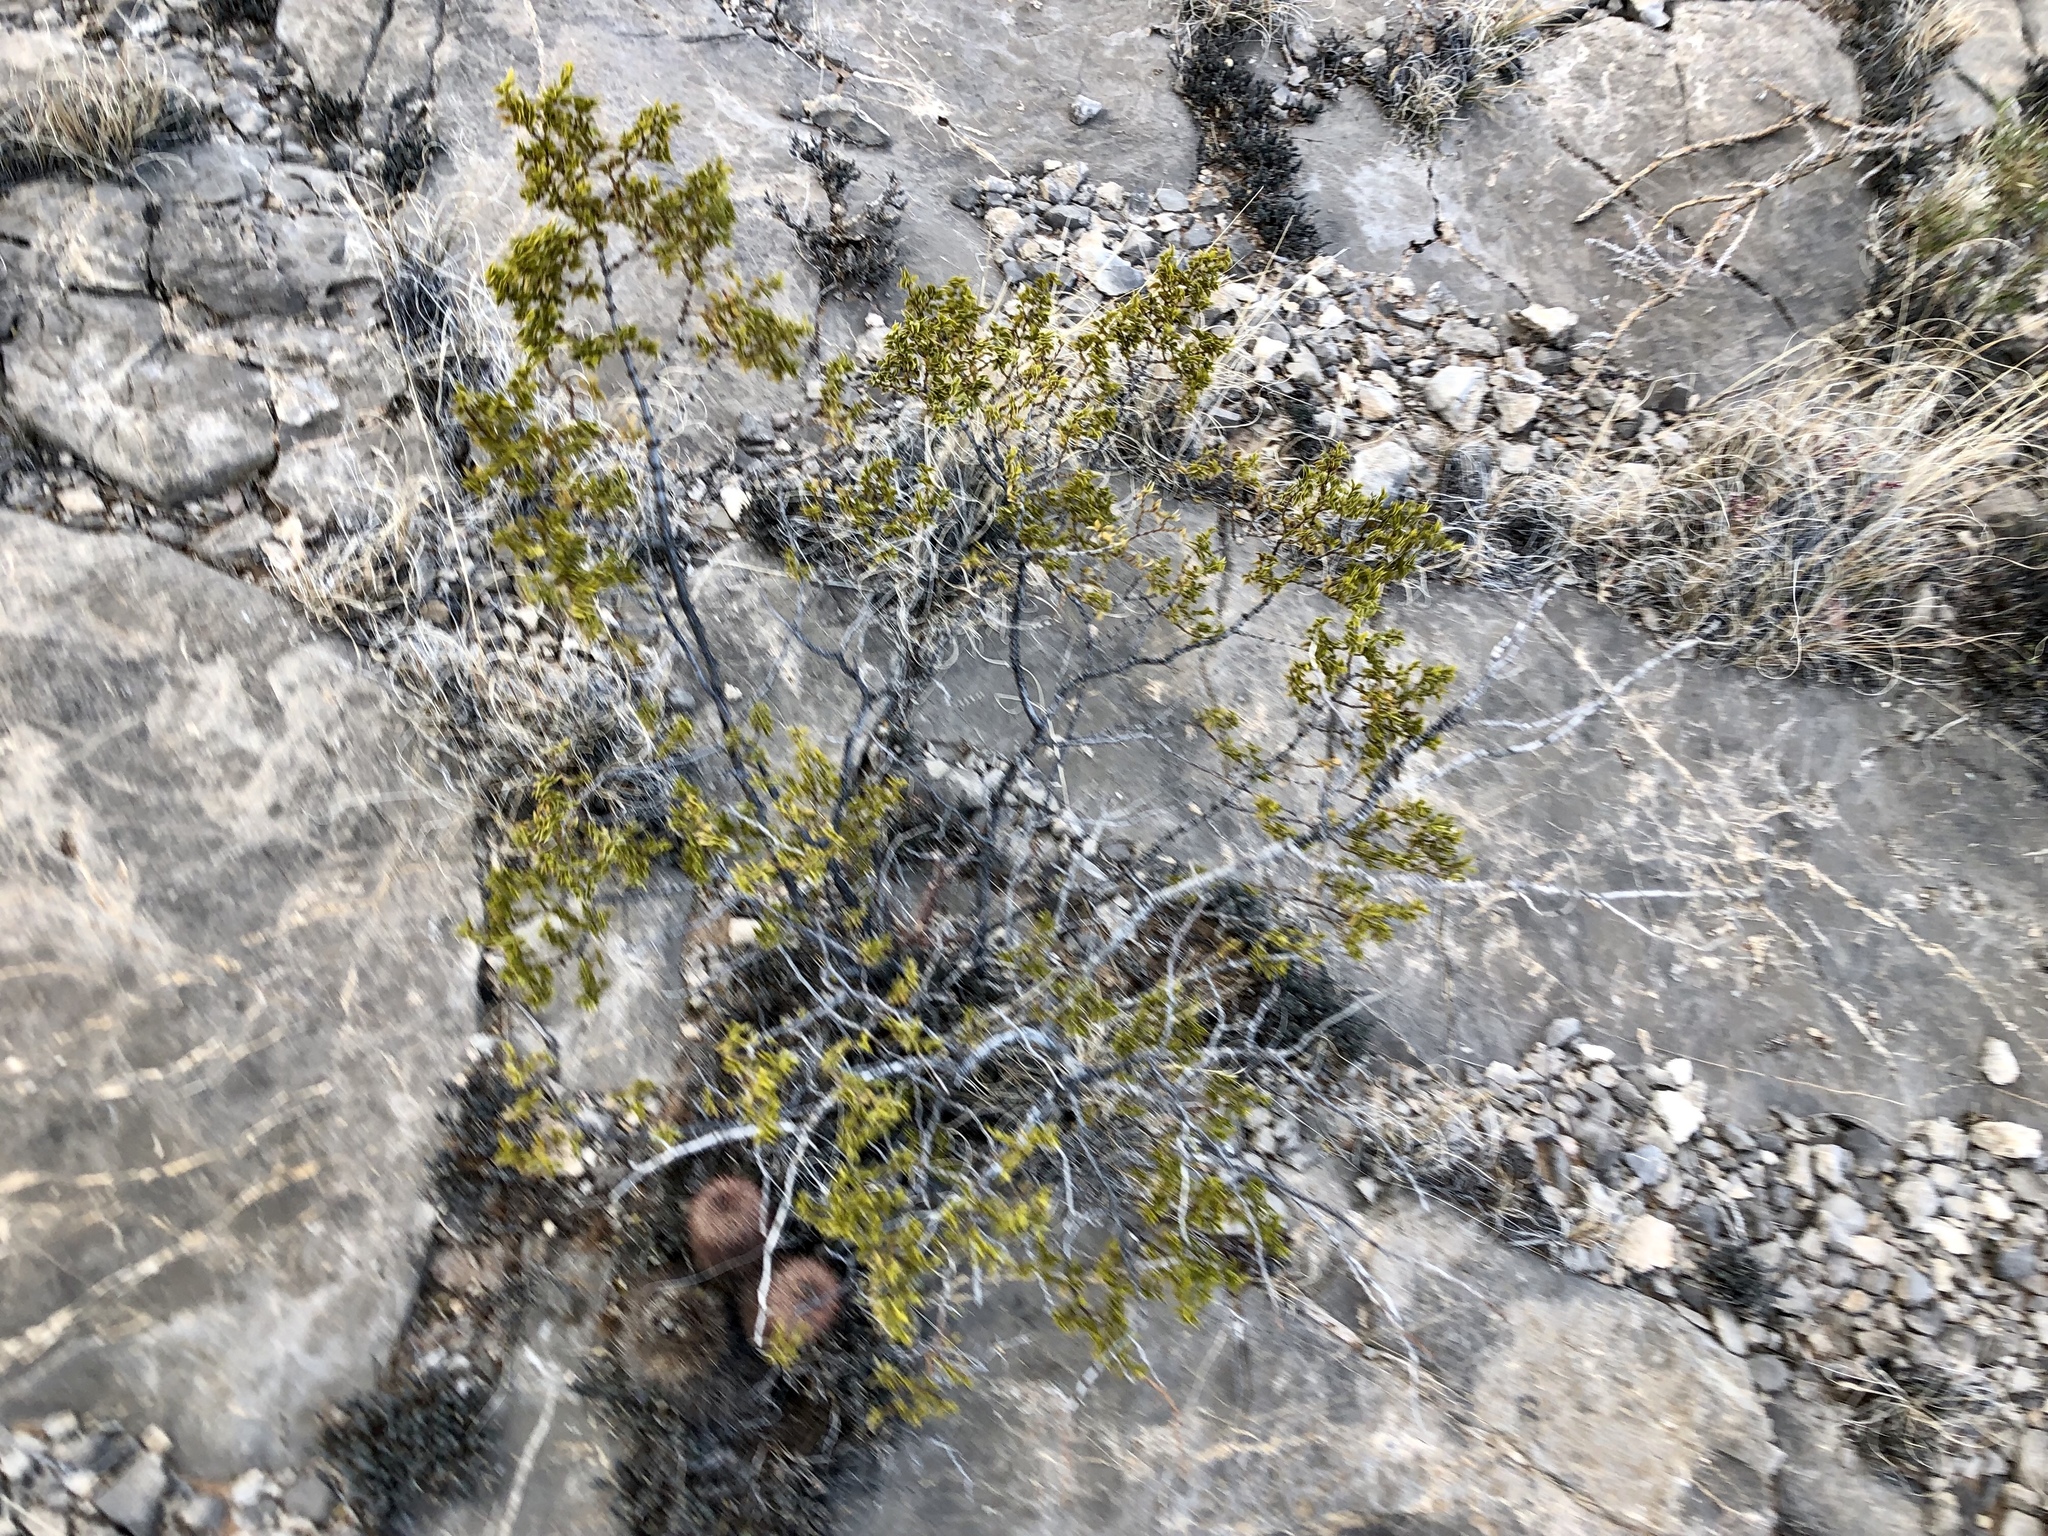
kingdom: Plantae
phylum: Tracheophyta
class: Magnoliopsida
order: Zygophyllales
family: Zygophyllaceae
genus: Larrea
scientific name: Larrea tridentata
